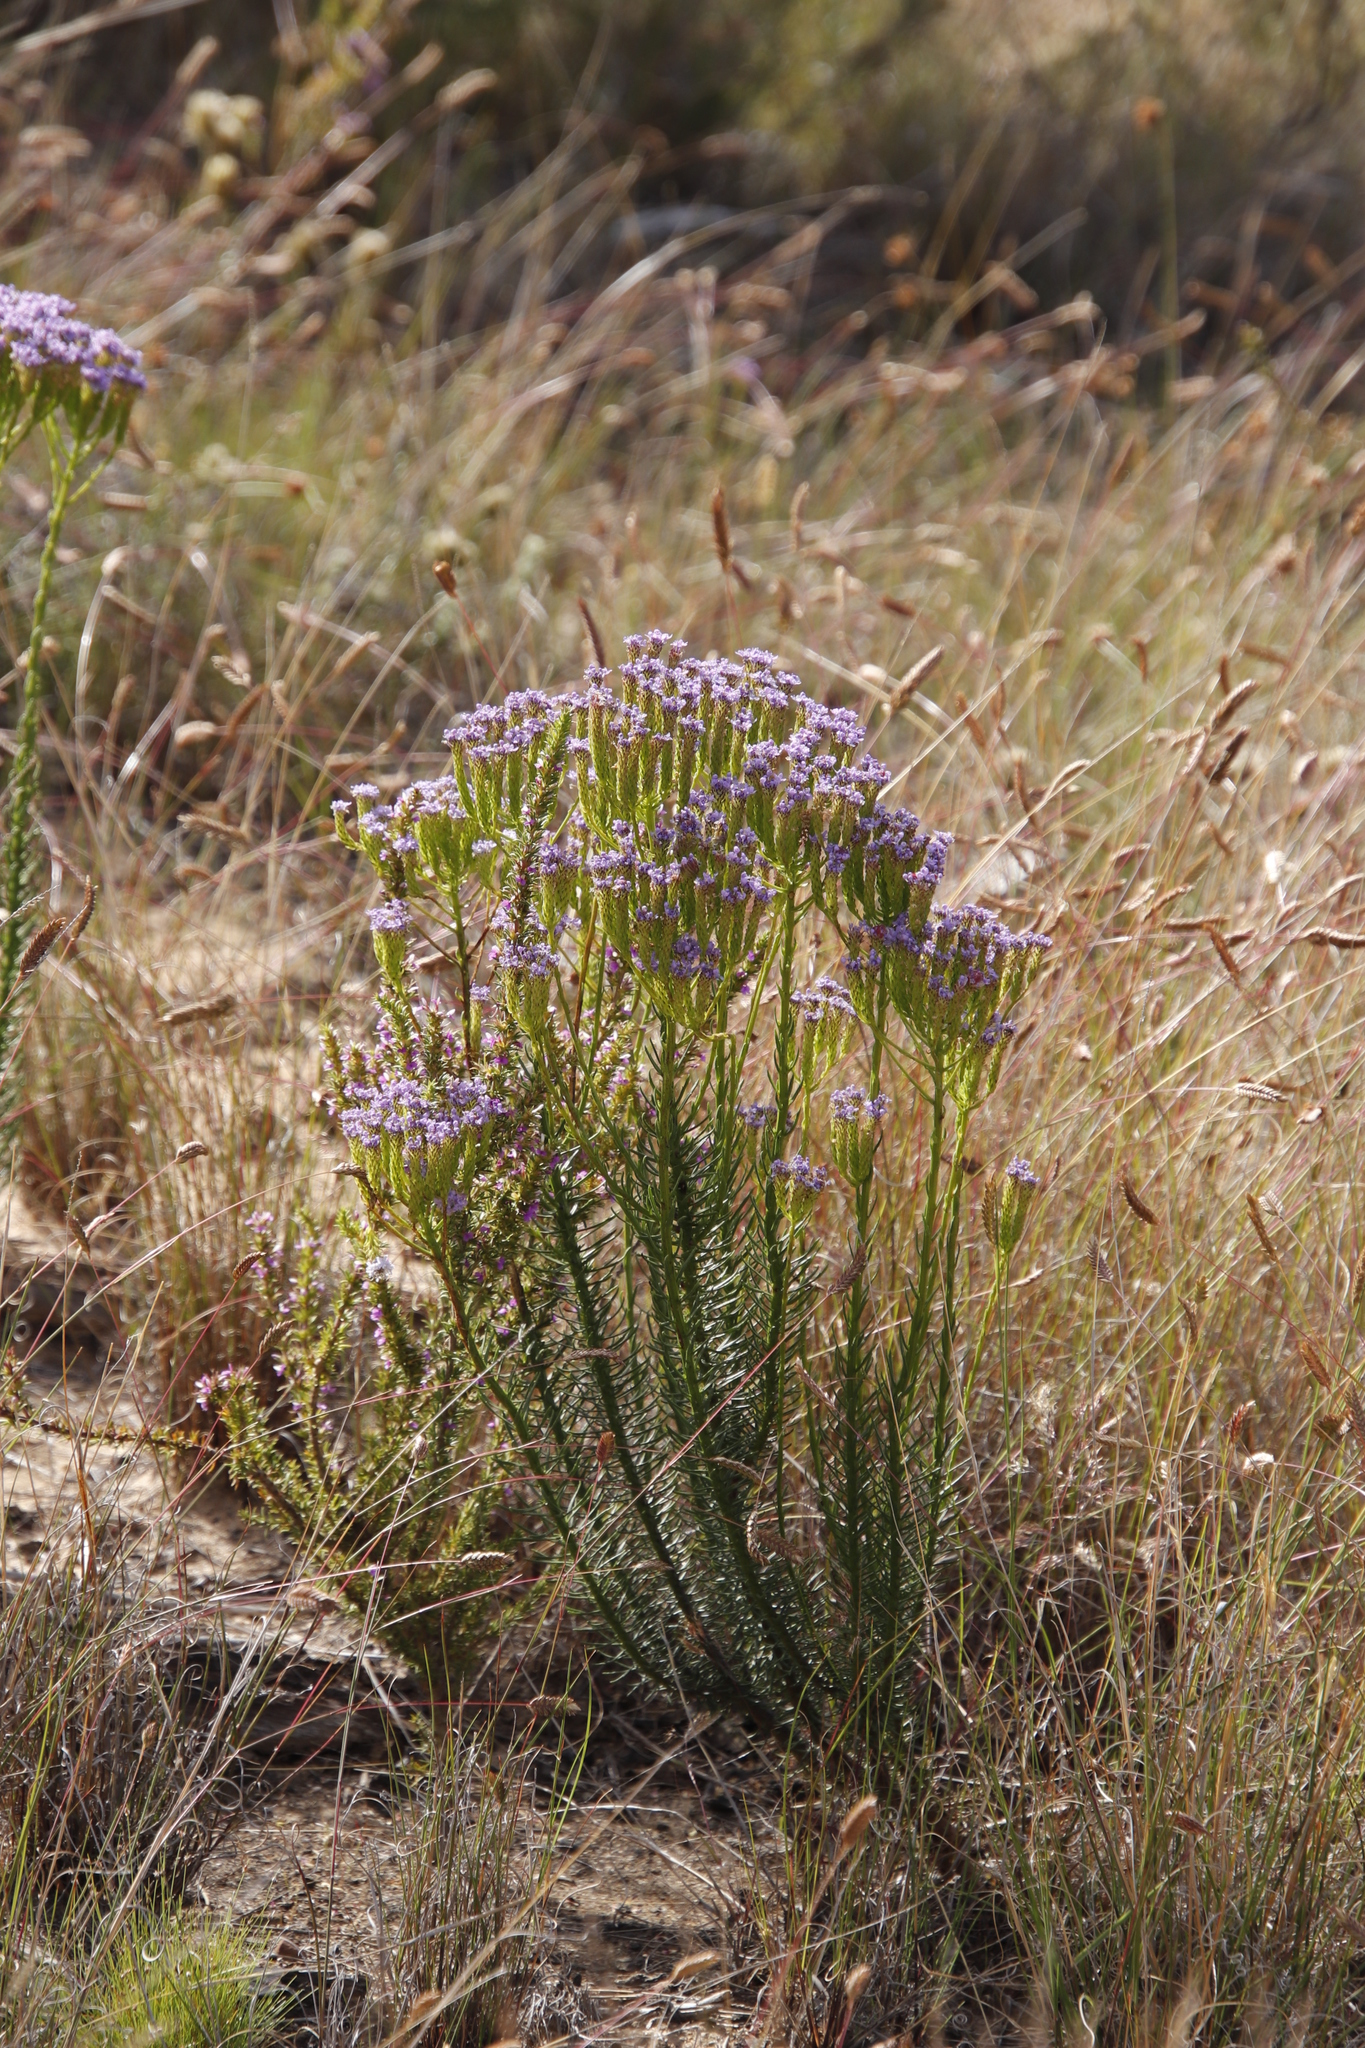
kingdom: Plantae
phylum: Tracheophyta
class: Magnoliopsida
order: Lamiales
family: Scrophulariaceae
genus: Pseudoselago
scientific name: Pseudoselago spuria
